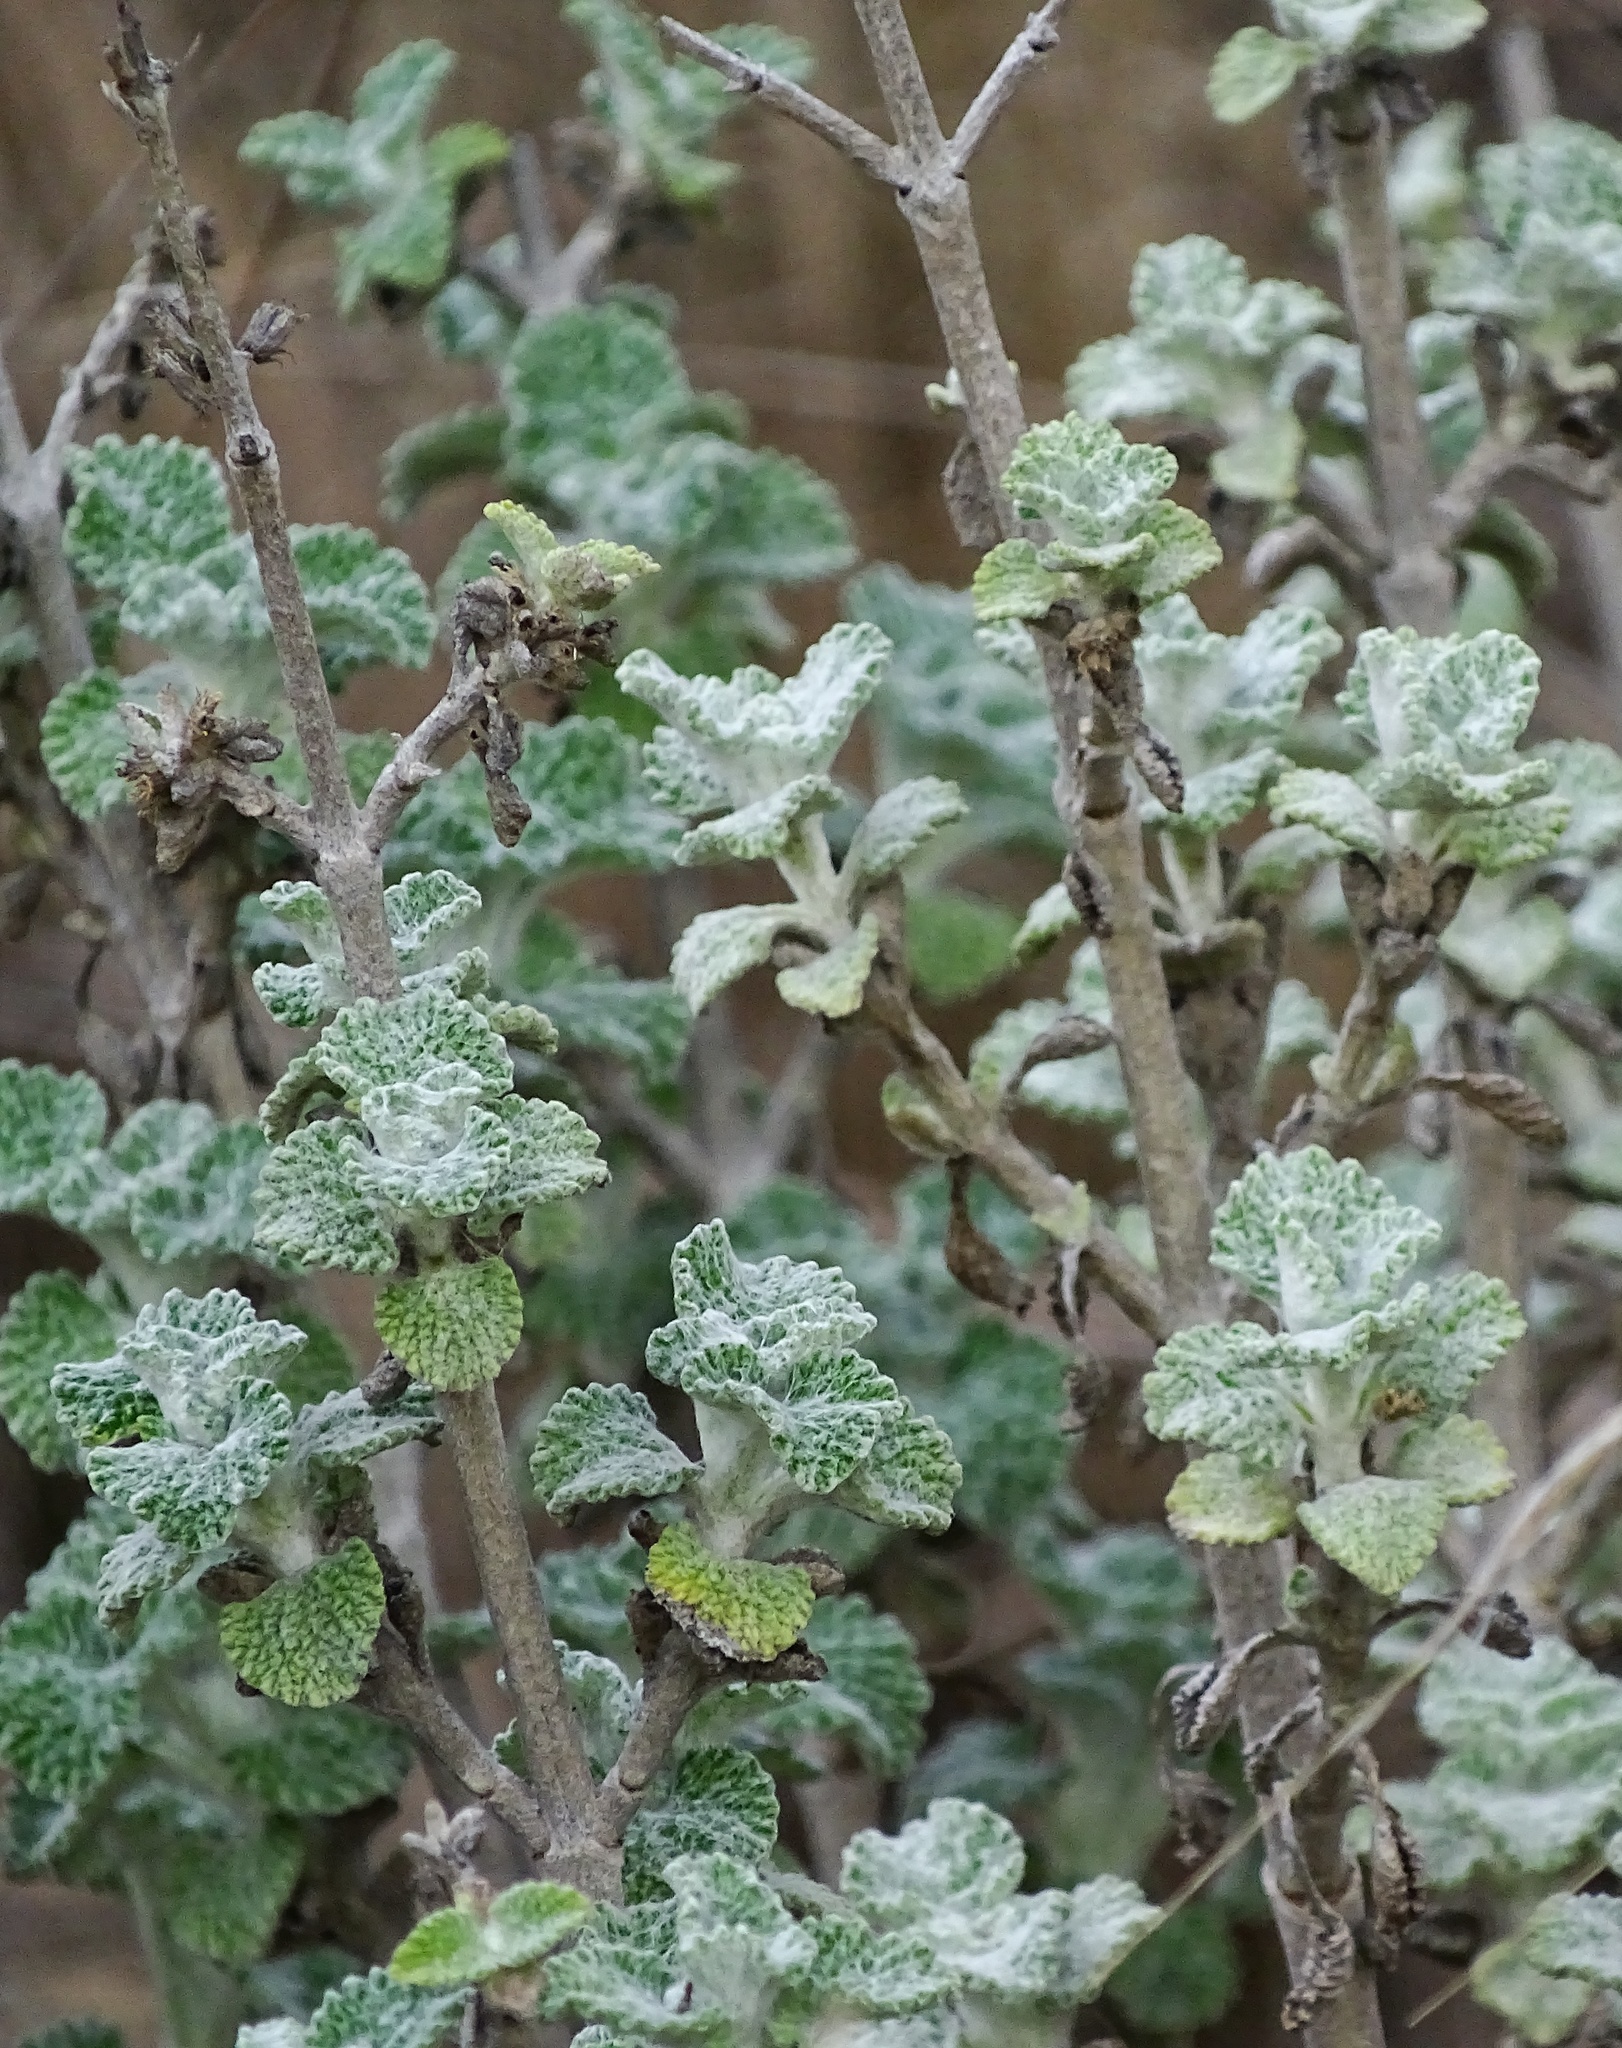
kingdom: Plantae
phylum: Tracheophyta
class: Magnoliopsida
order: Lamiales
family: Lamiaceae
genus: Marrubium
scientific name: Marrubium vulgare
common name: Horehound
